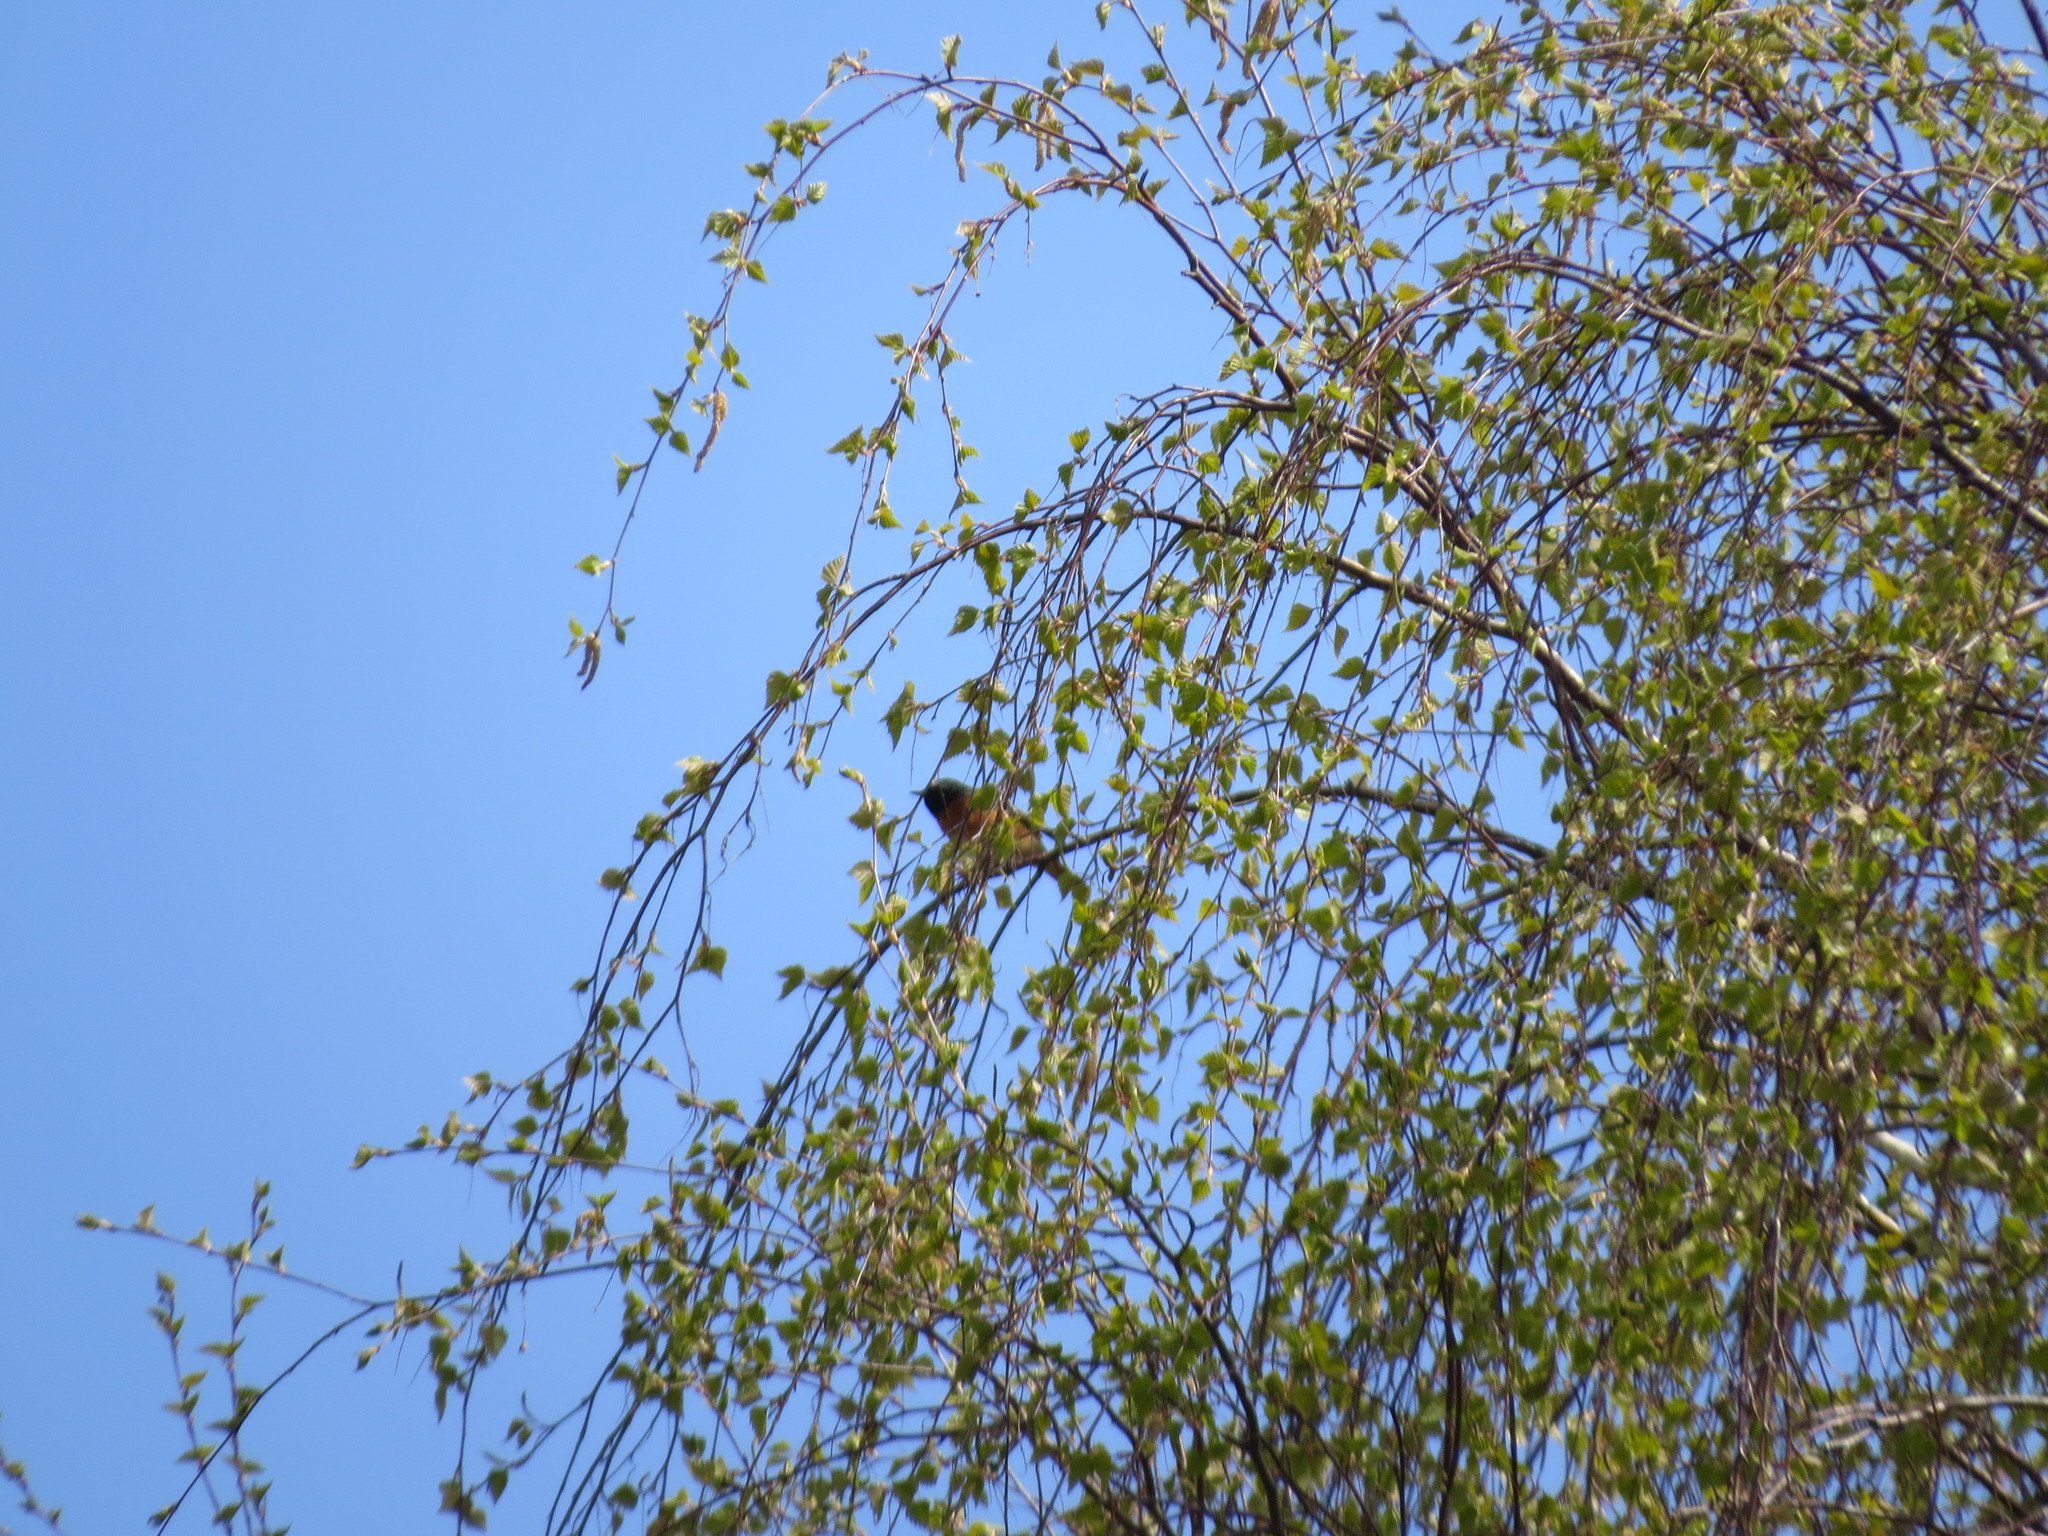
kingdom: Animalia
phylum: Chordata
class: Aves
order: Passeriformes
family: Muscicapidae
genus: Phoenicurus
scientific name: Phoenicurus phoenicurus
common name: Common redstart
